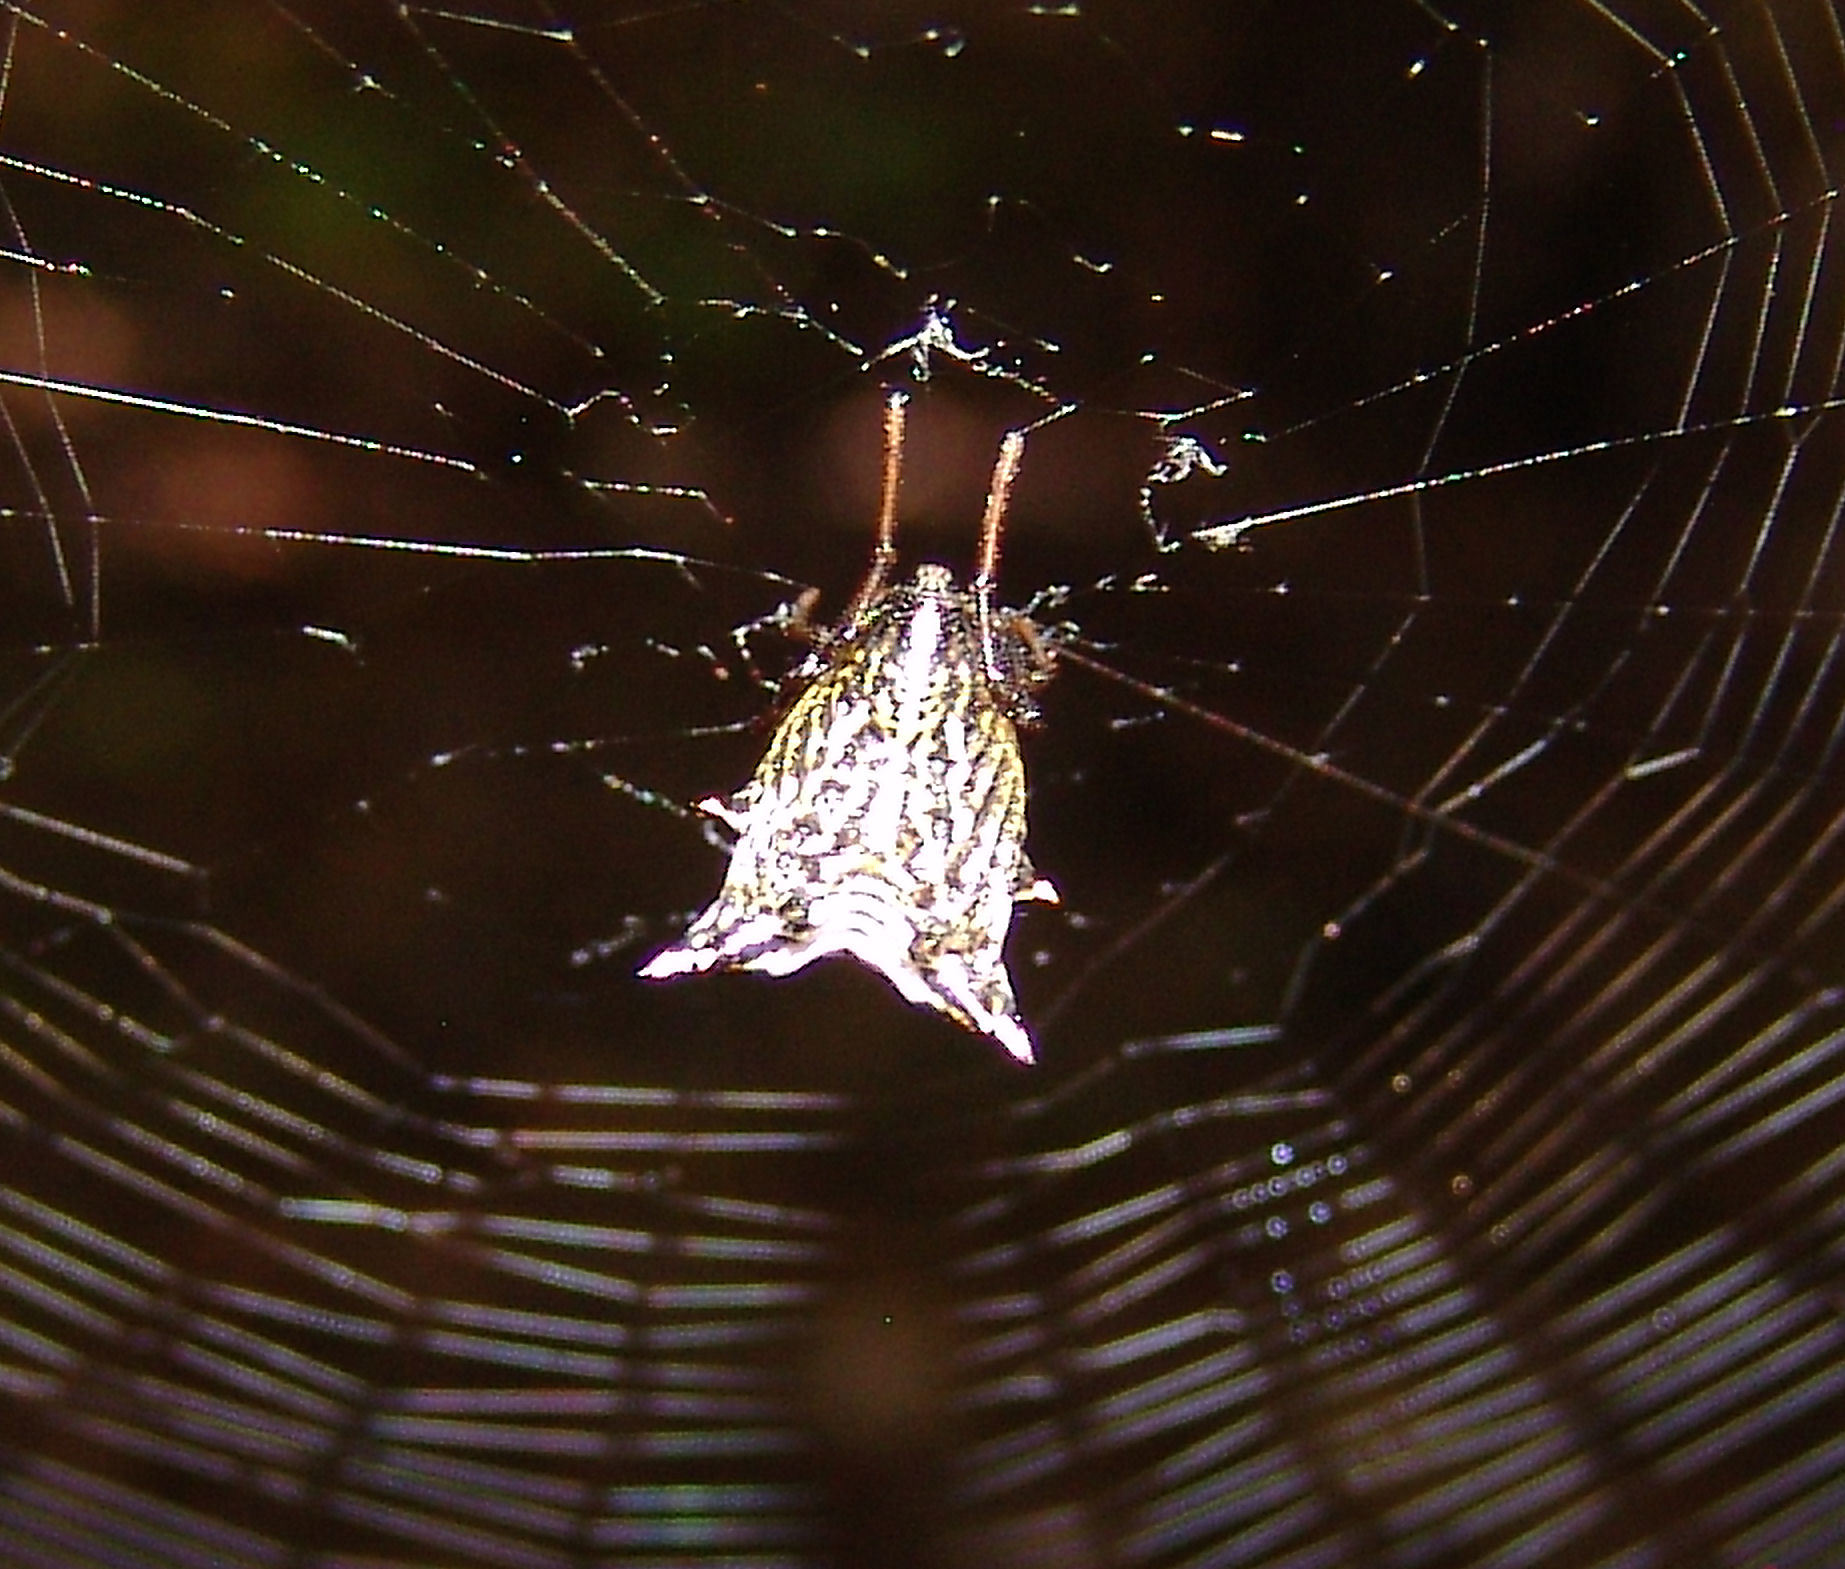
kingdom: Animalia
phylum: Arthropoda
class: Arachnida
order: Araneae
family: Araneidae
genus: Micrathena
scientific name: Micrathena gracilis
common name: Orb weavers
